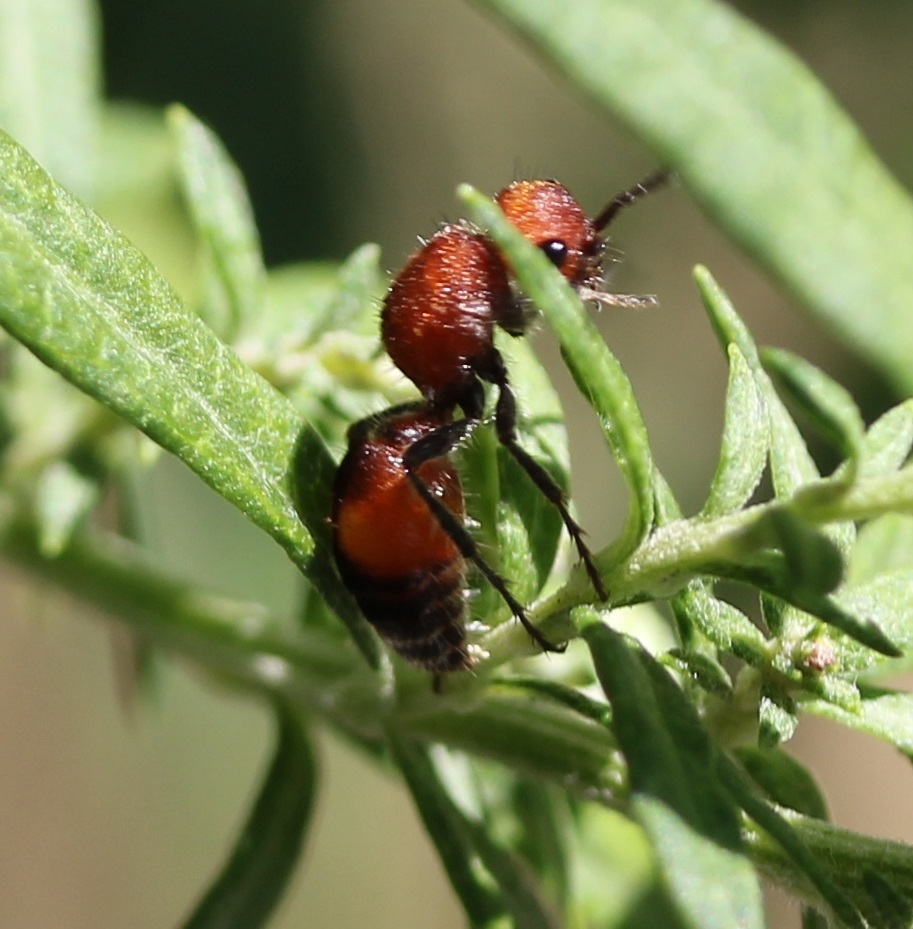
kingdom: Animalia
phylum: Arthropoda
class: Insecta
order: Hymenoptera
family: Mutillidae
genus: Dasymutilla
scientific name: Dasymutilla
